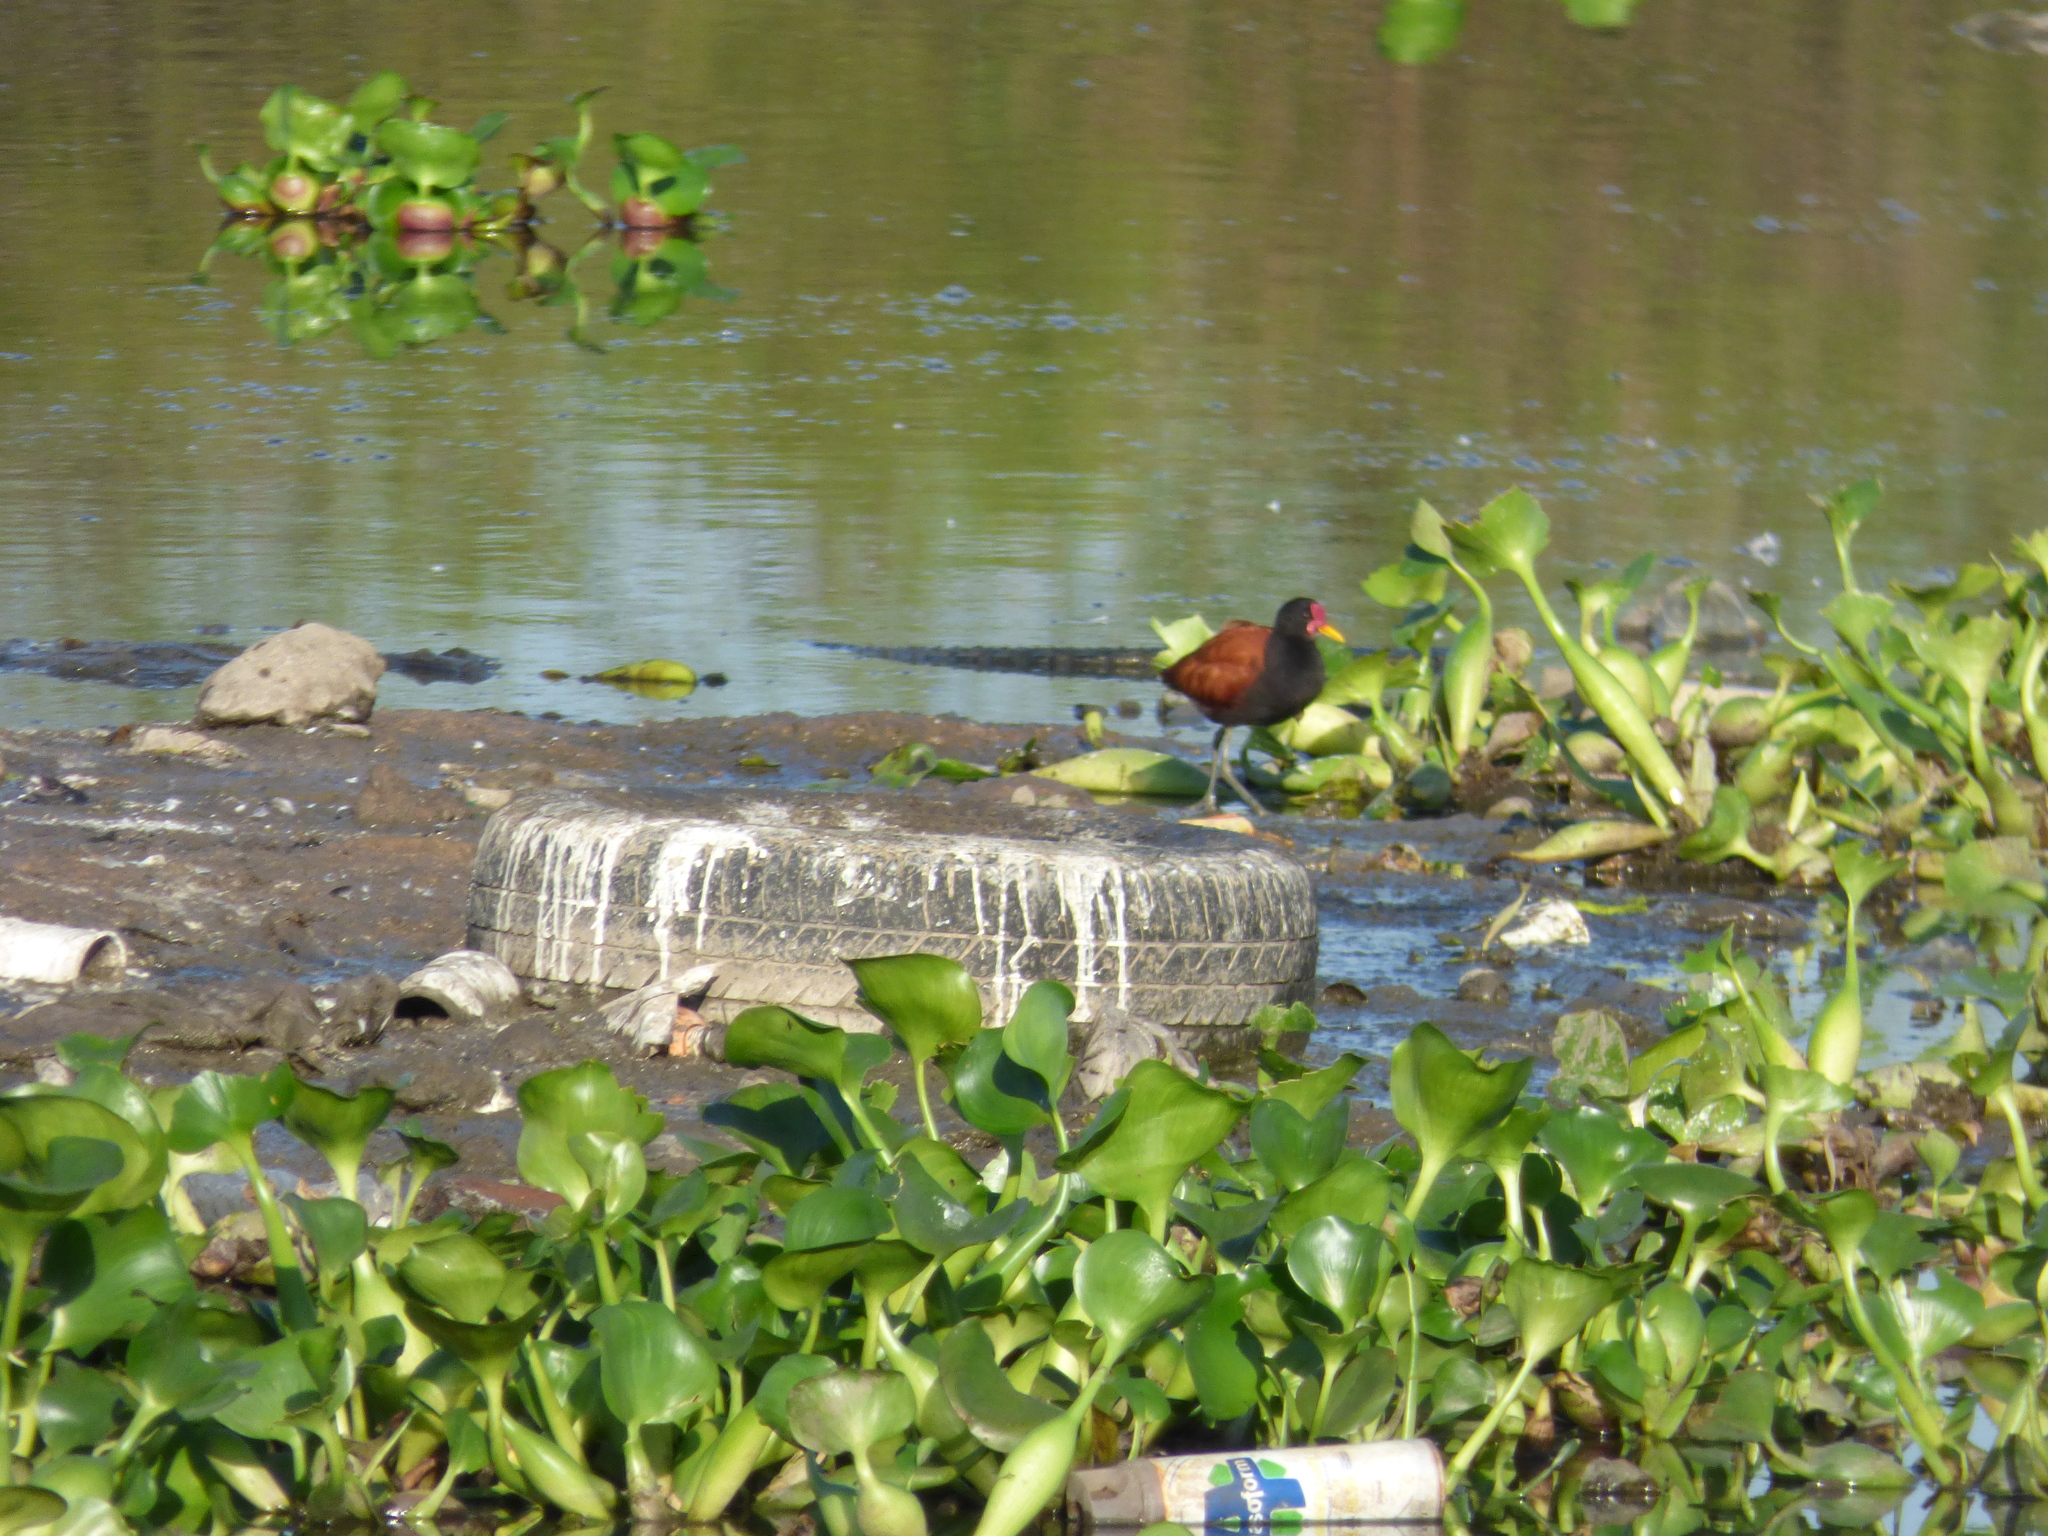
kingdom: Animalia
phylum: Chordata
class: Aves
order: Charadriiformes
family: Jacanidae
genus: Jacana
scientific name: Jacana jacana
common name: Wattled jacana
